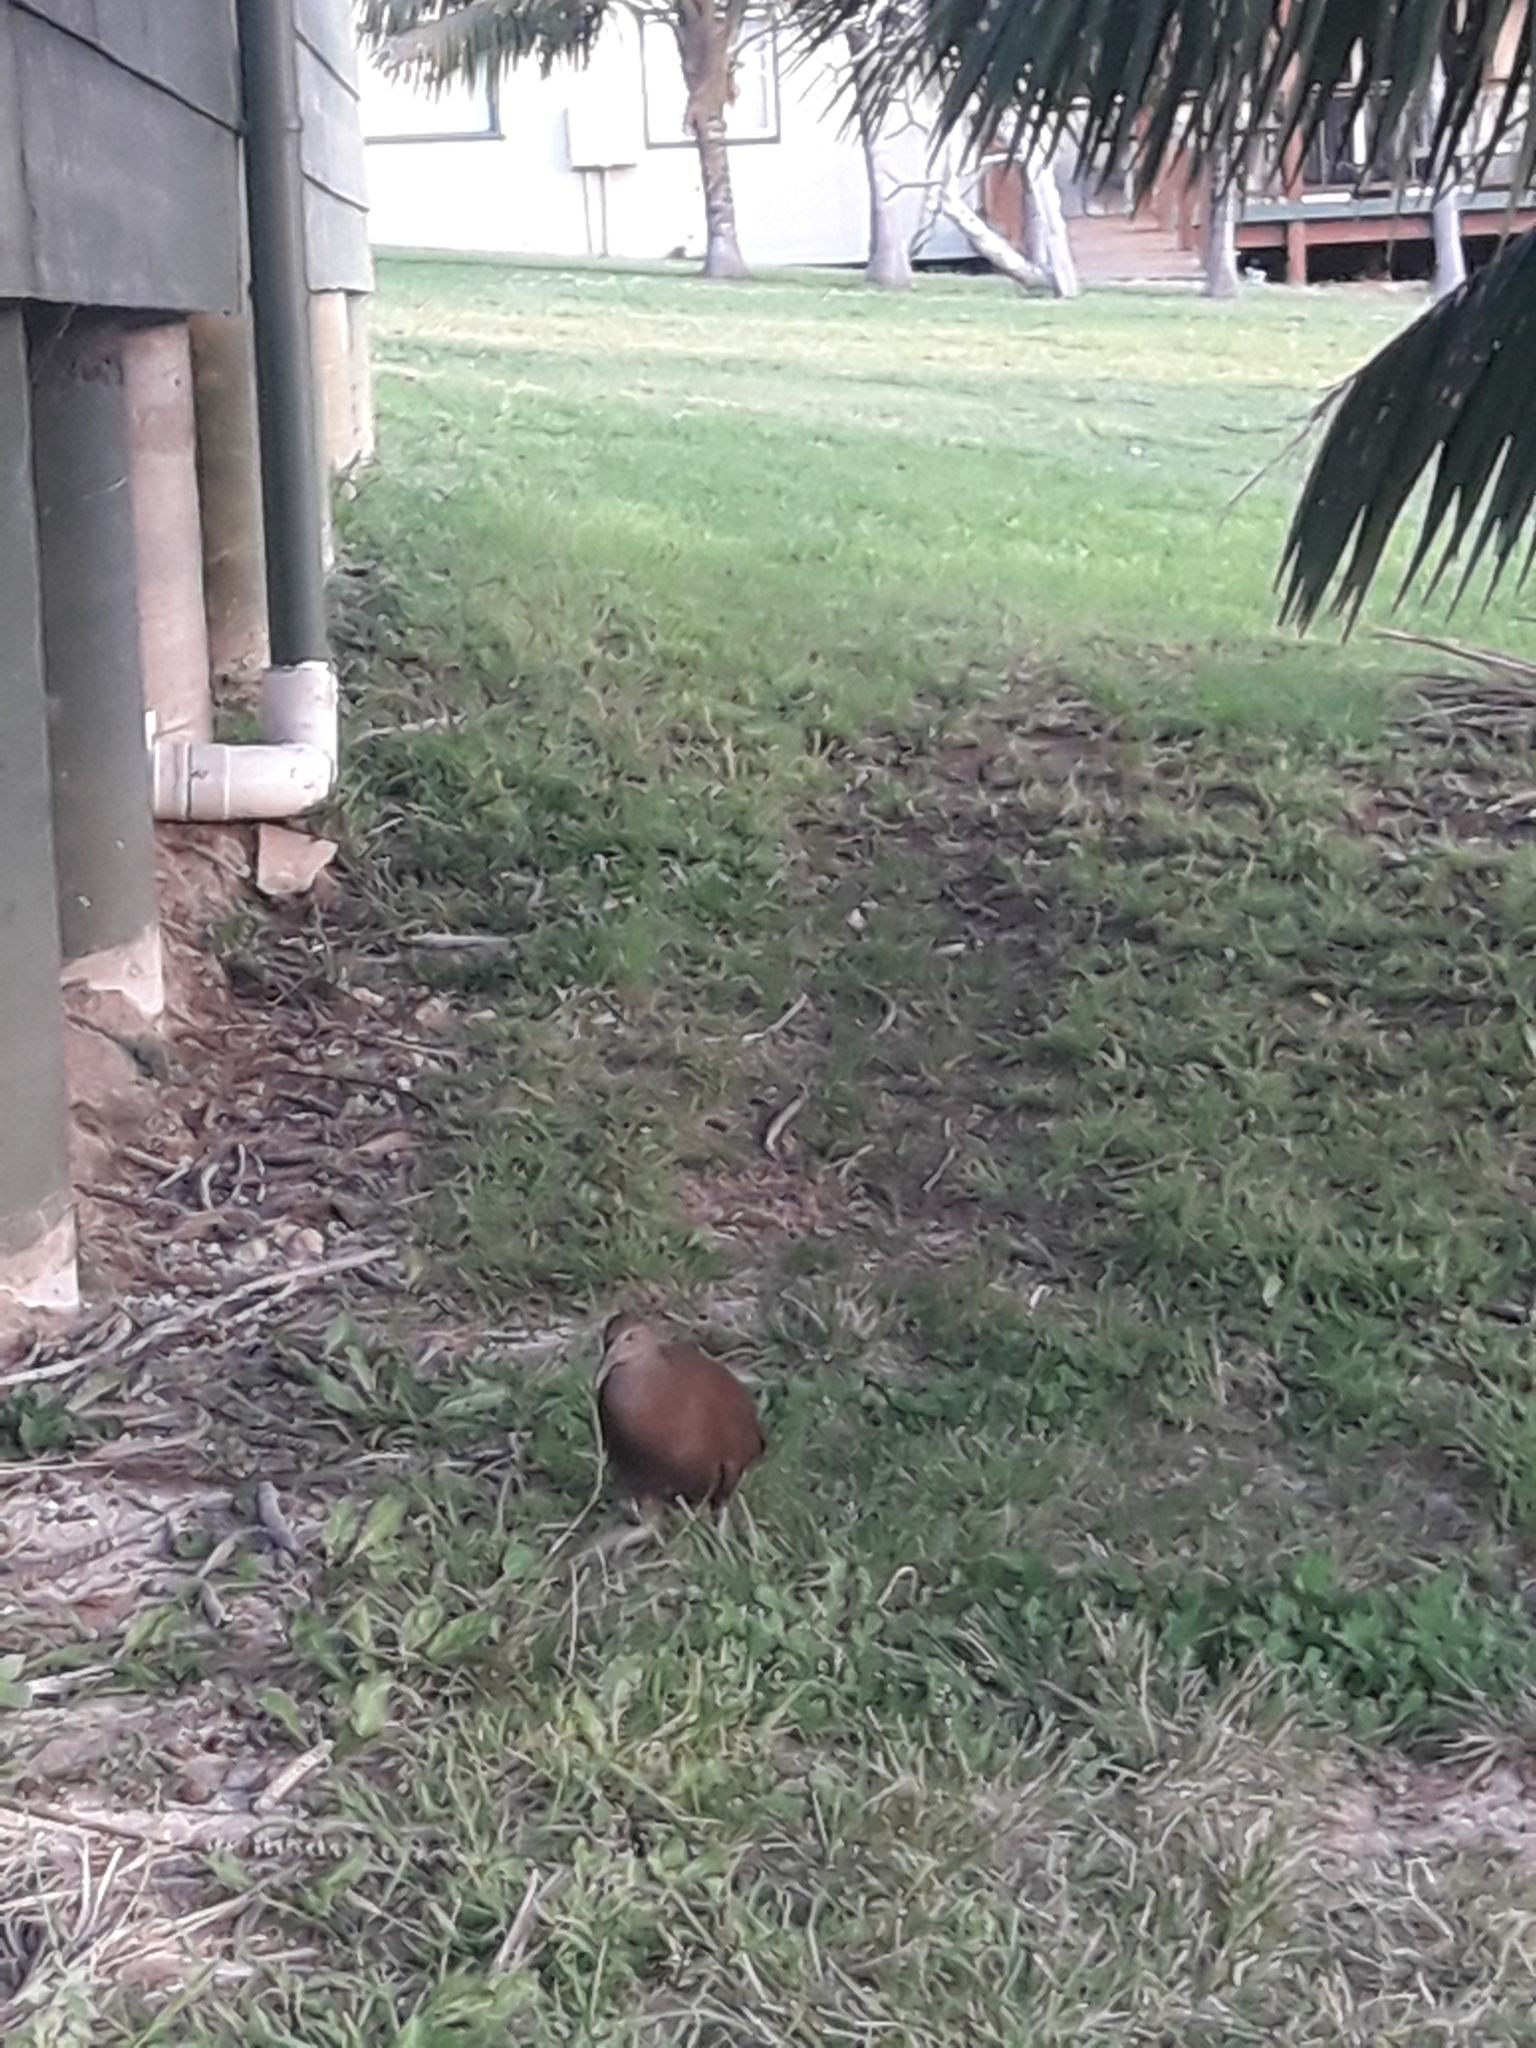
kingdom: Animalia
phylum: Chordata
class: Aves
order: Gruiformes
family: Rallidae
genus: Gallirallus
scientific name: Gallirallus sylvestris
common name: Lord howe woodhen
